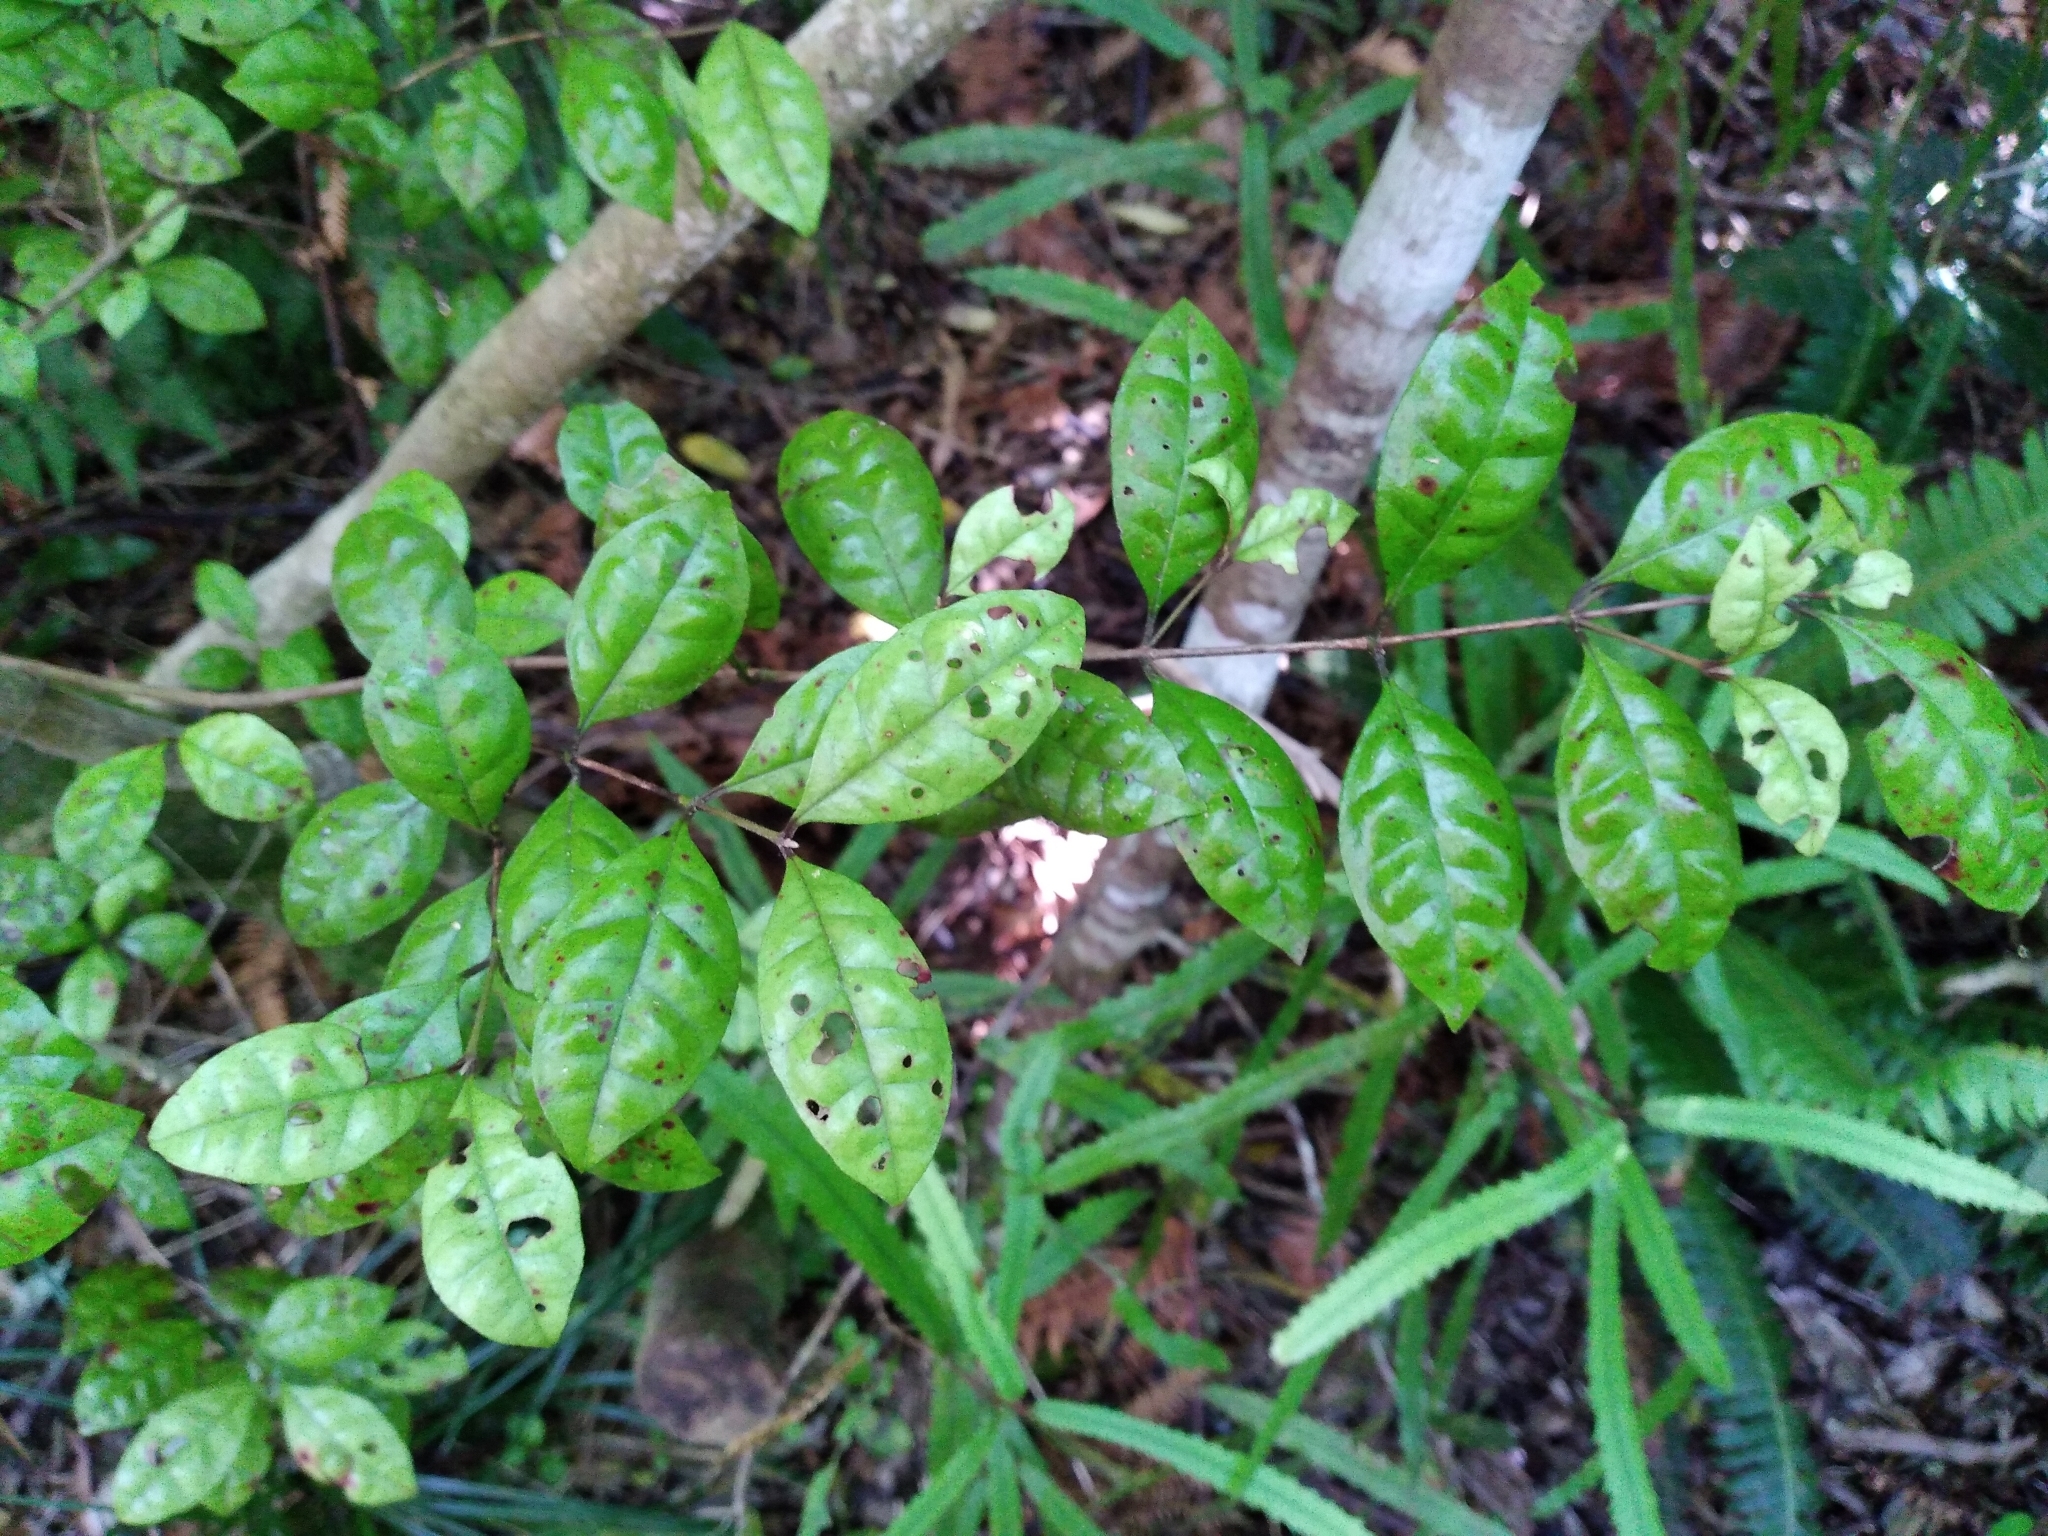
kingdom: Plantae
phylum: Tracheophyta
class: Magnoliopsida
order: Myrtales
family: Myrtaceae
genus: Lophomyrtus
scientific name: Lophomyrtus bullata
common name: Rama rama
